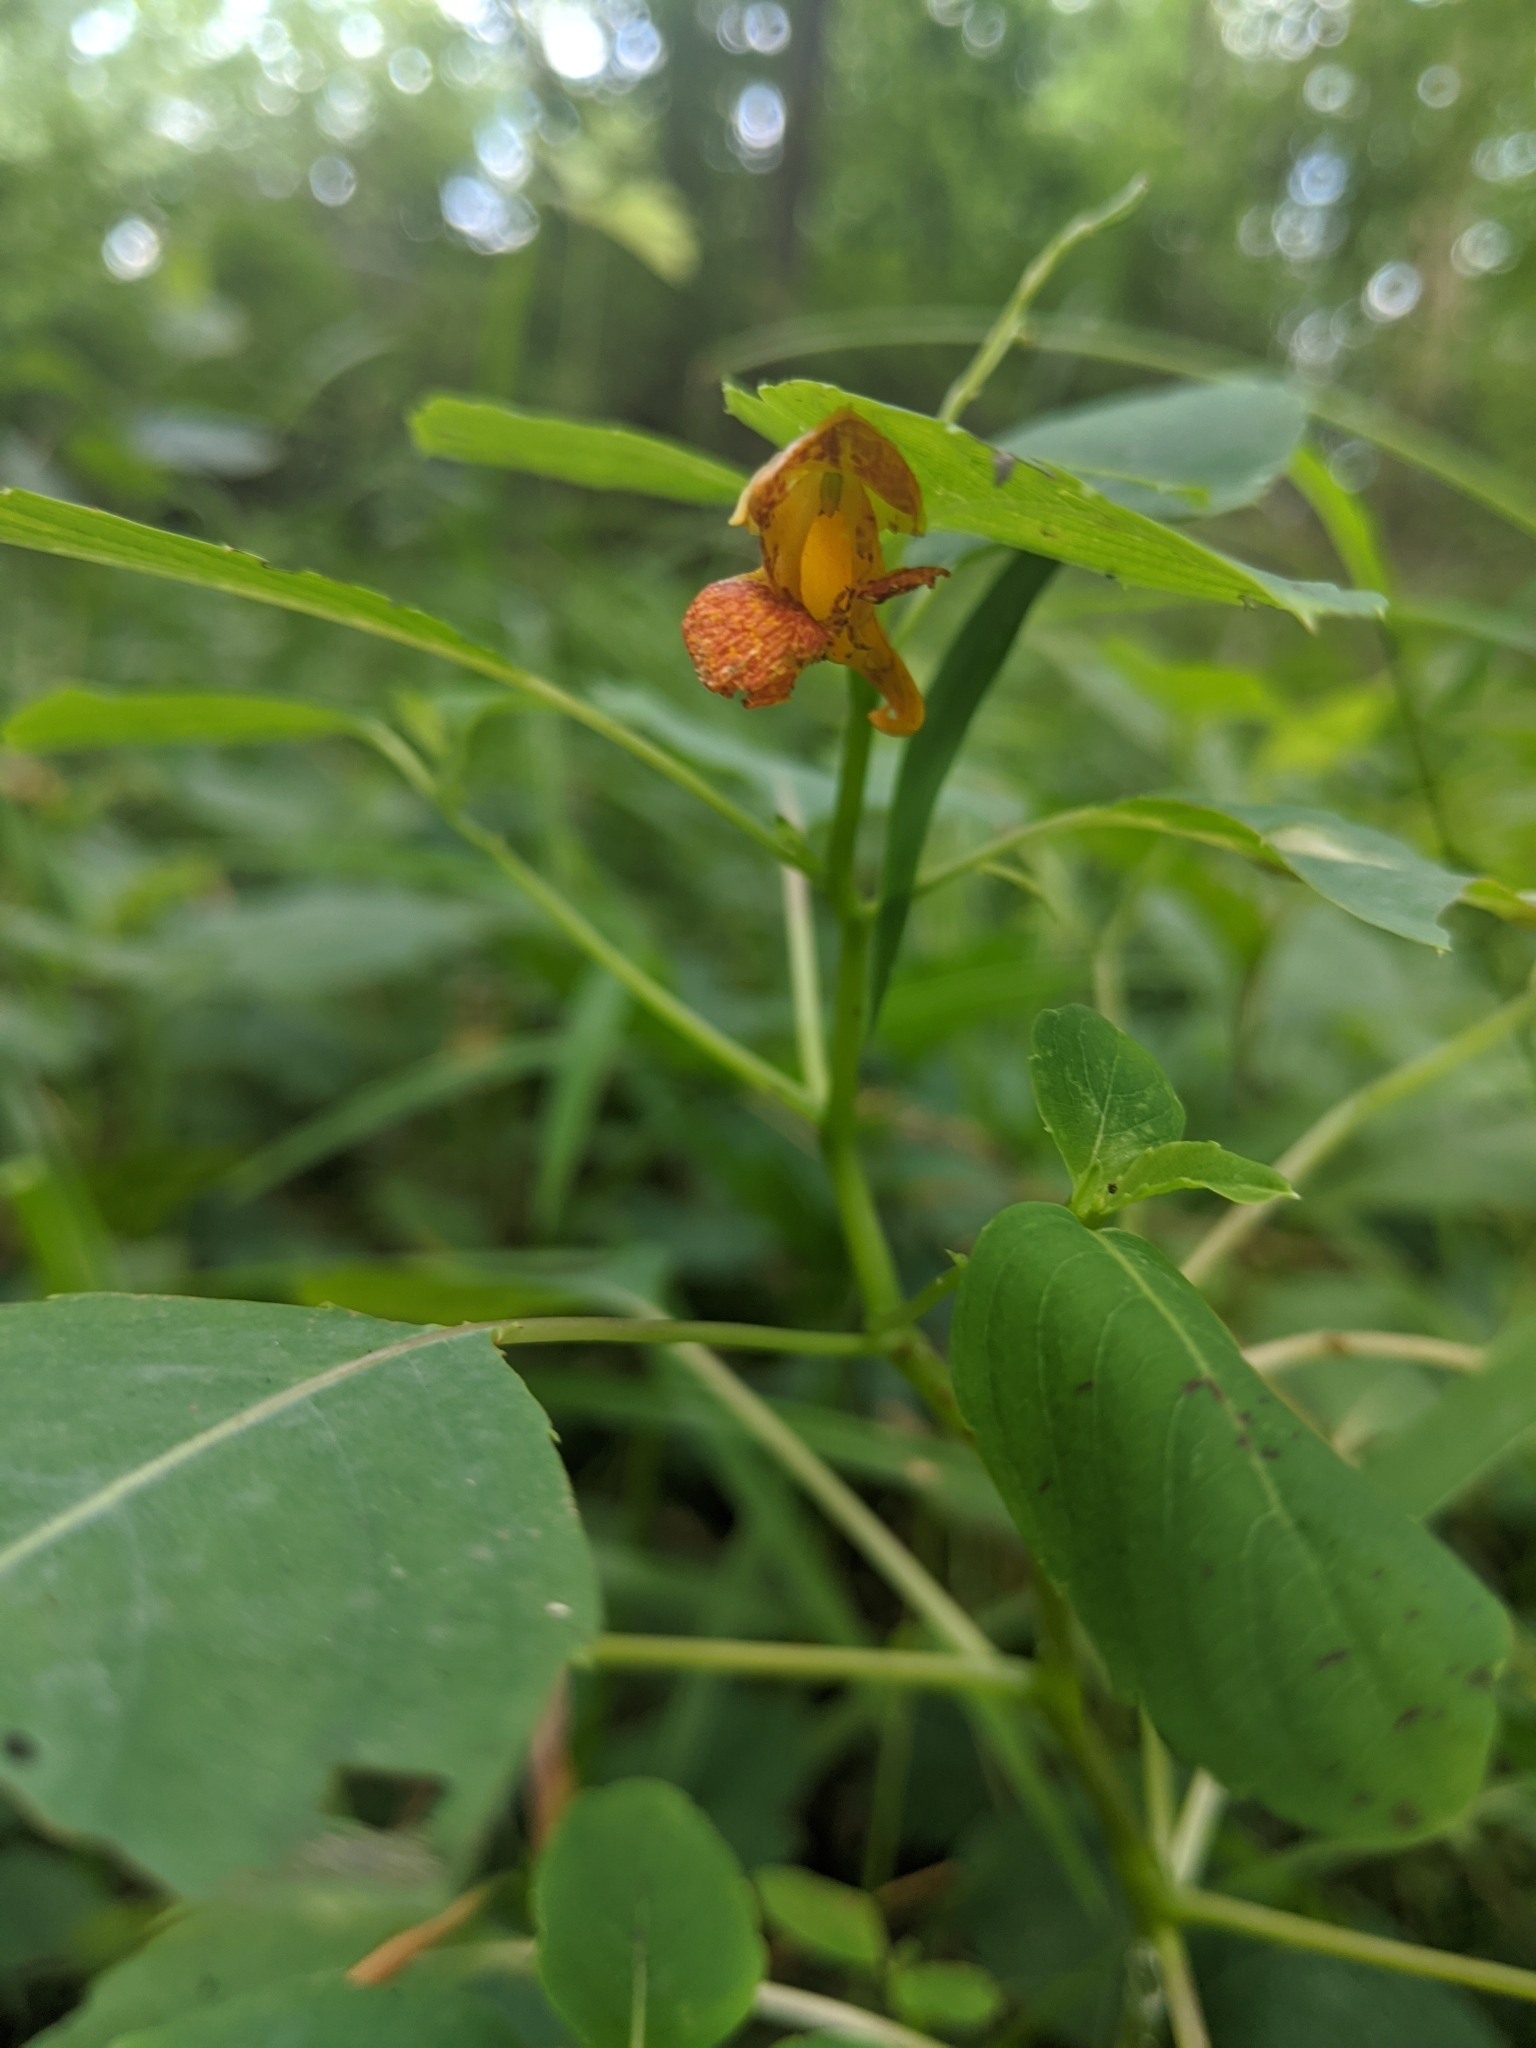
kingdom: Plantae
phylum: Tracheophyta
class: Magnoliopsida
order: Ericales
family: Balsaminaceae
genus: Impatiens
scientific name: Impatiens capensis
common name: Orange balsam
